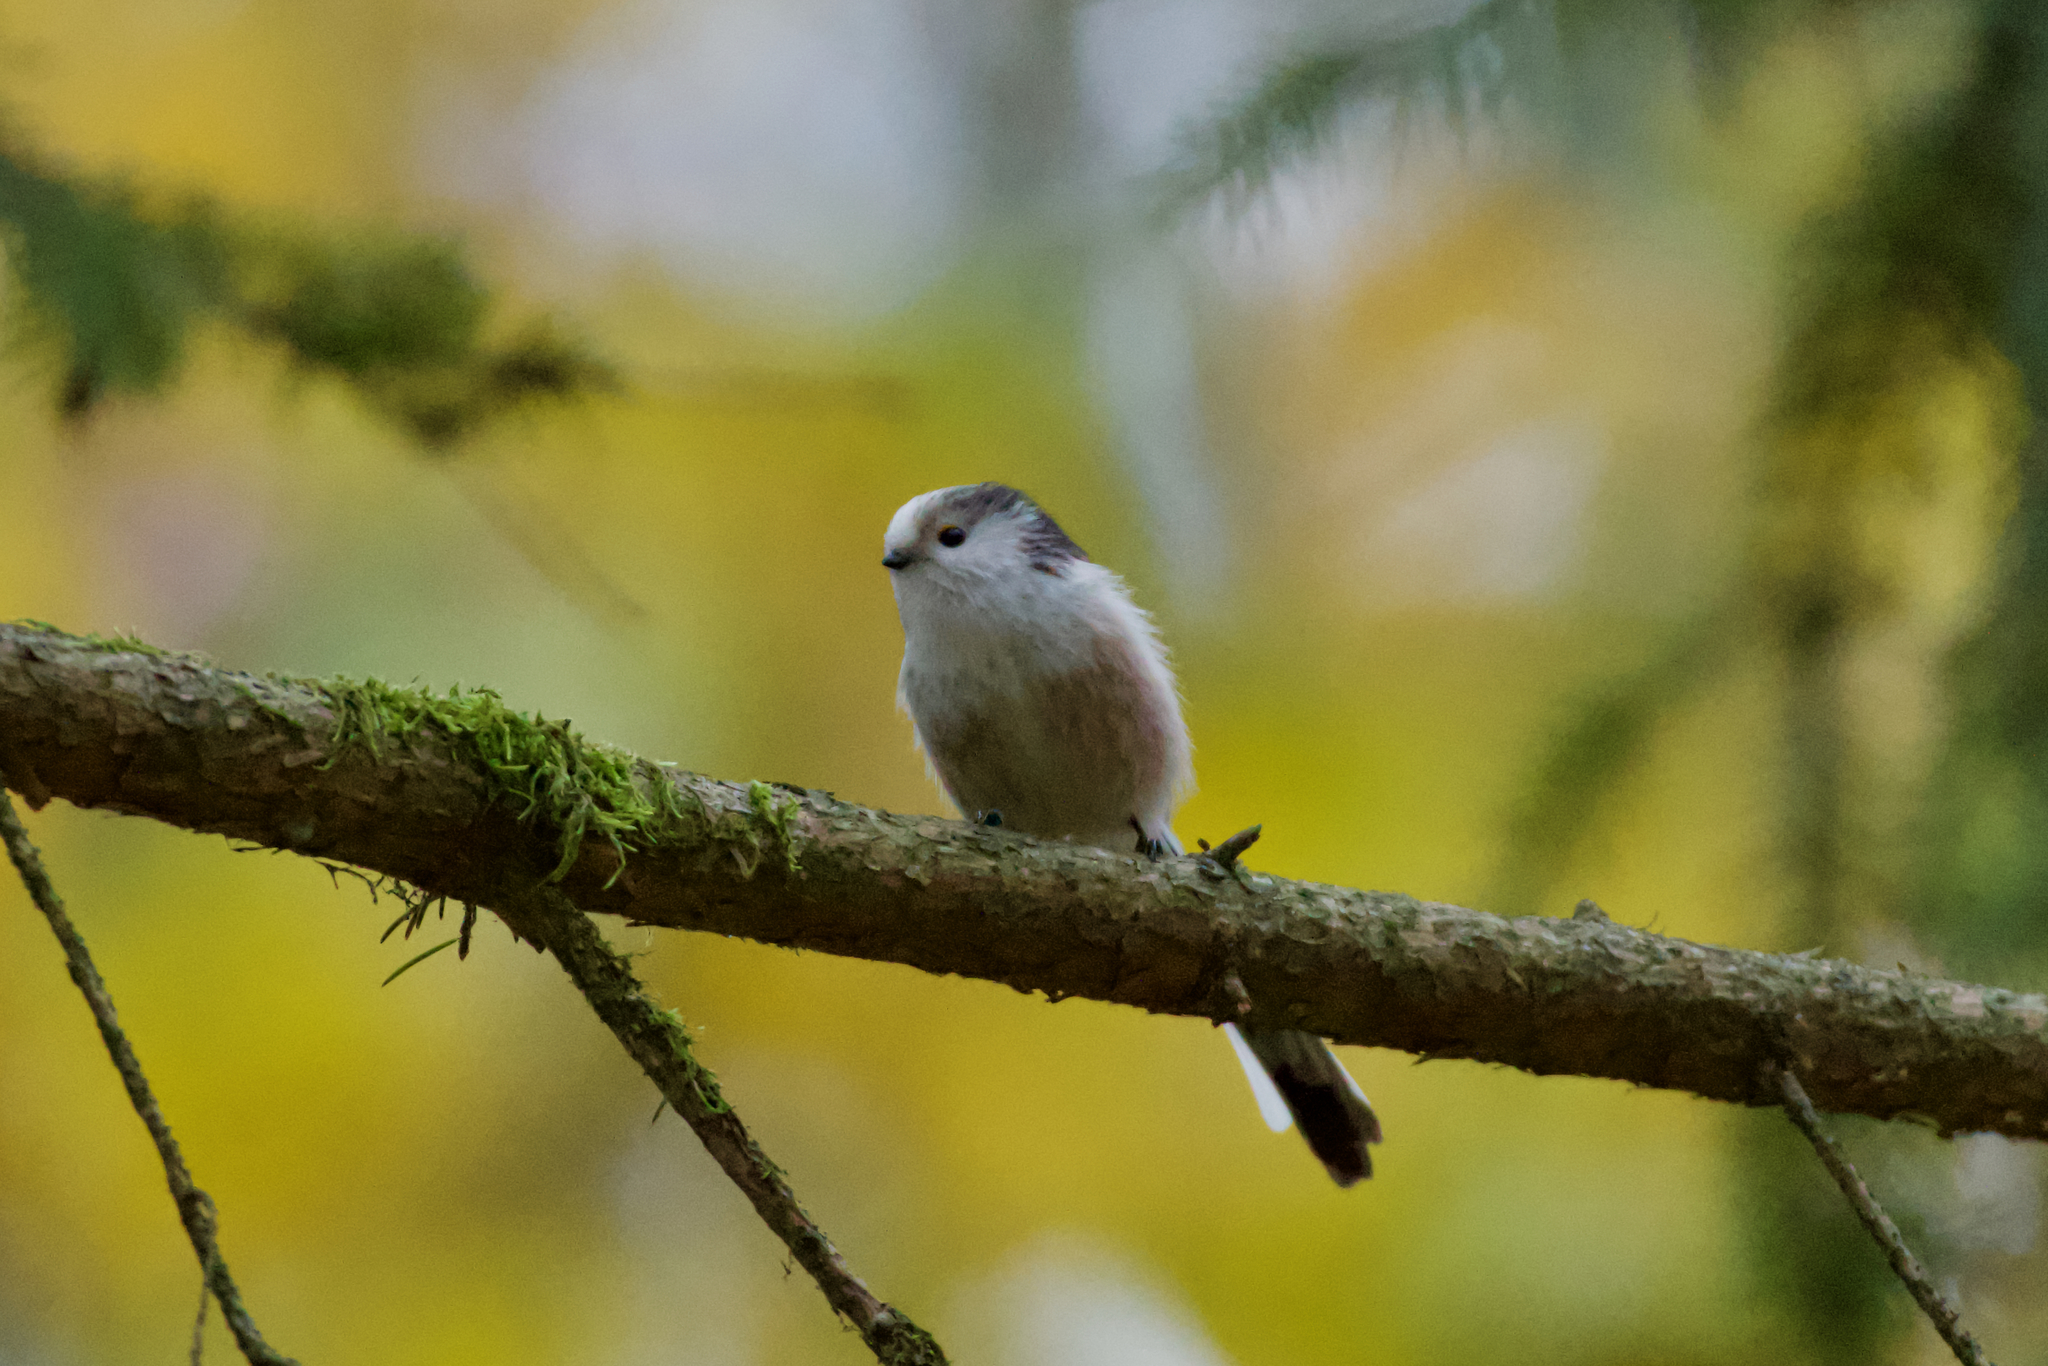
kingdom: Animalia
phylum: Chordata
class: Aves
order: Passeriformes
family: Aegithalidae
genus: Aegithalos
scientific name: Aegithalos caudatus
